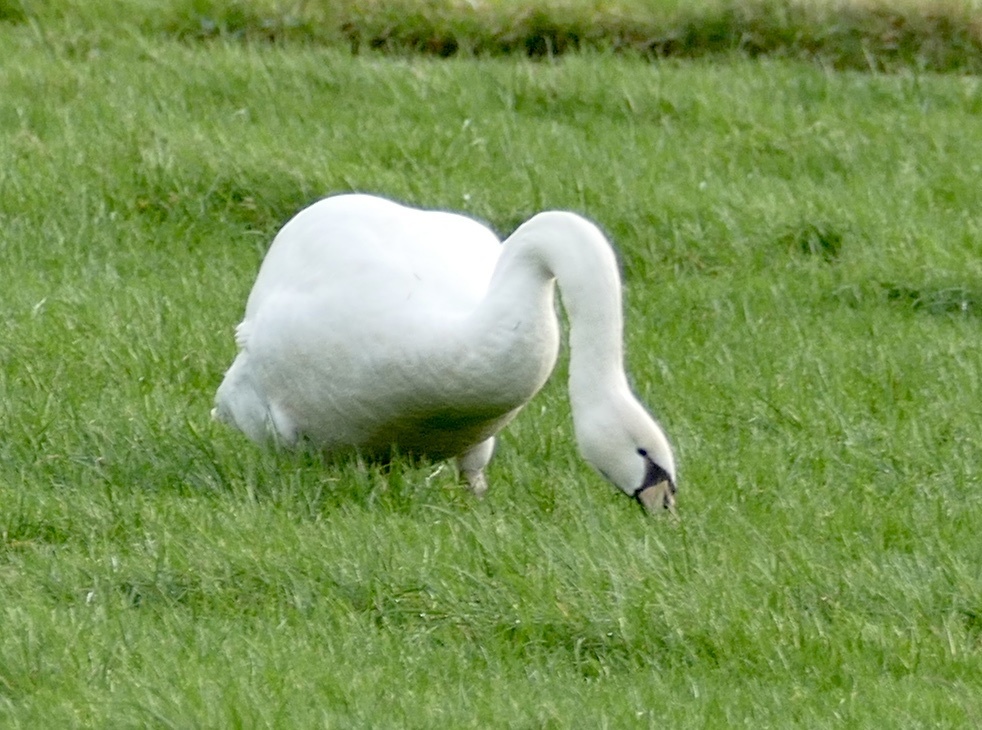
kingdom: Animalia
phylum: Chordata
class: Aves
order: Anseriformes
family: Anatidae
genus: Cygnus
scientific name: Cygnus olor
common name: Mute swan
